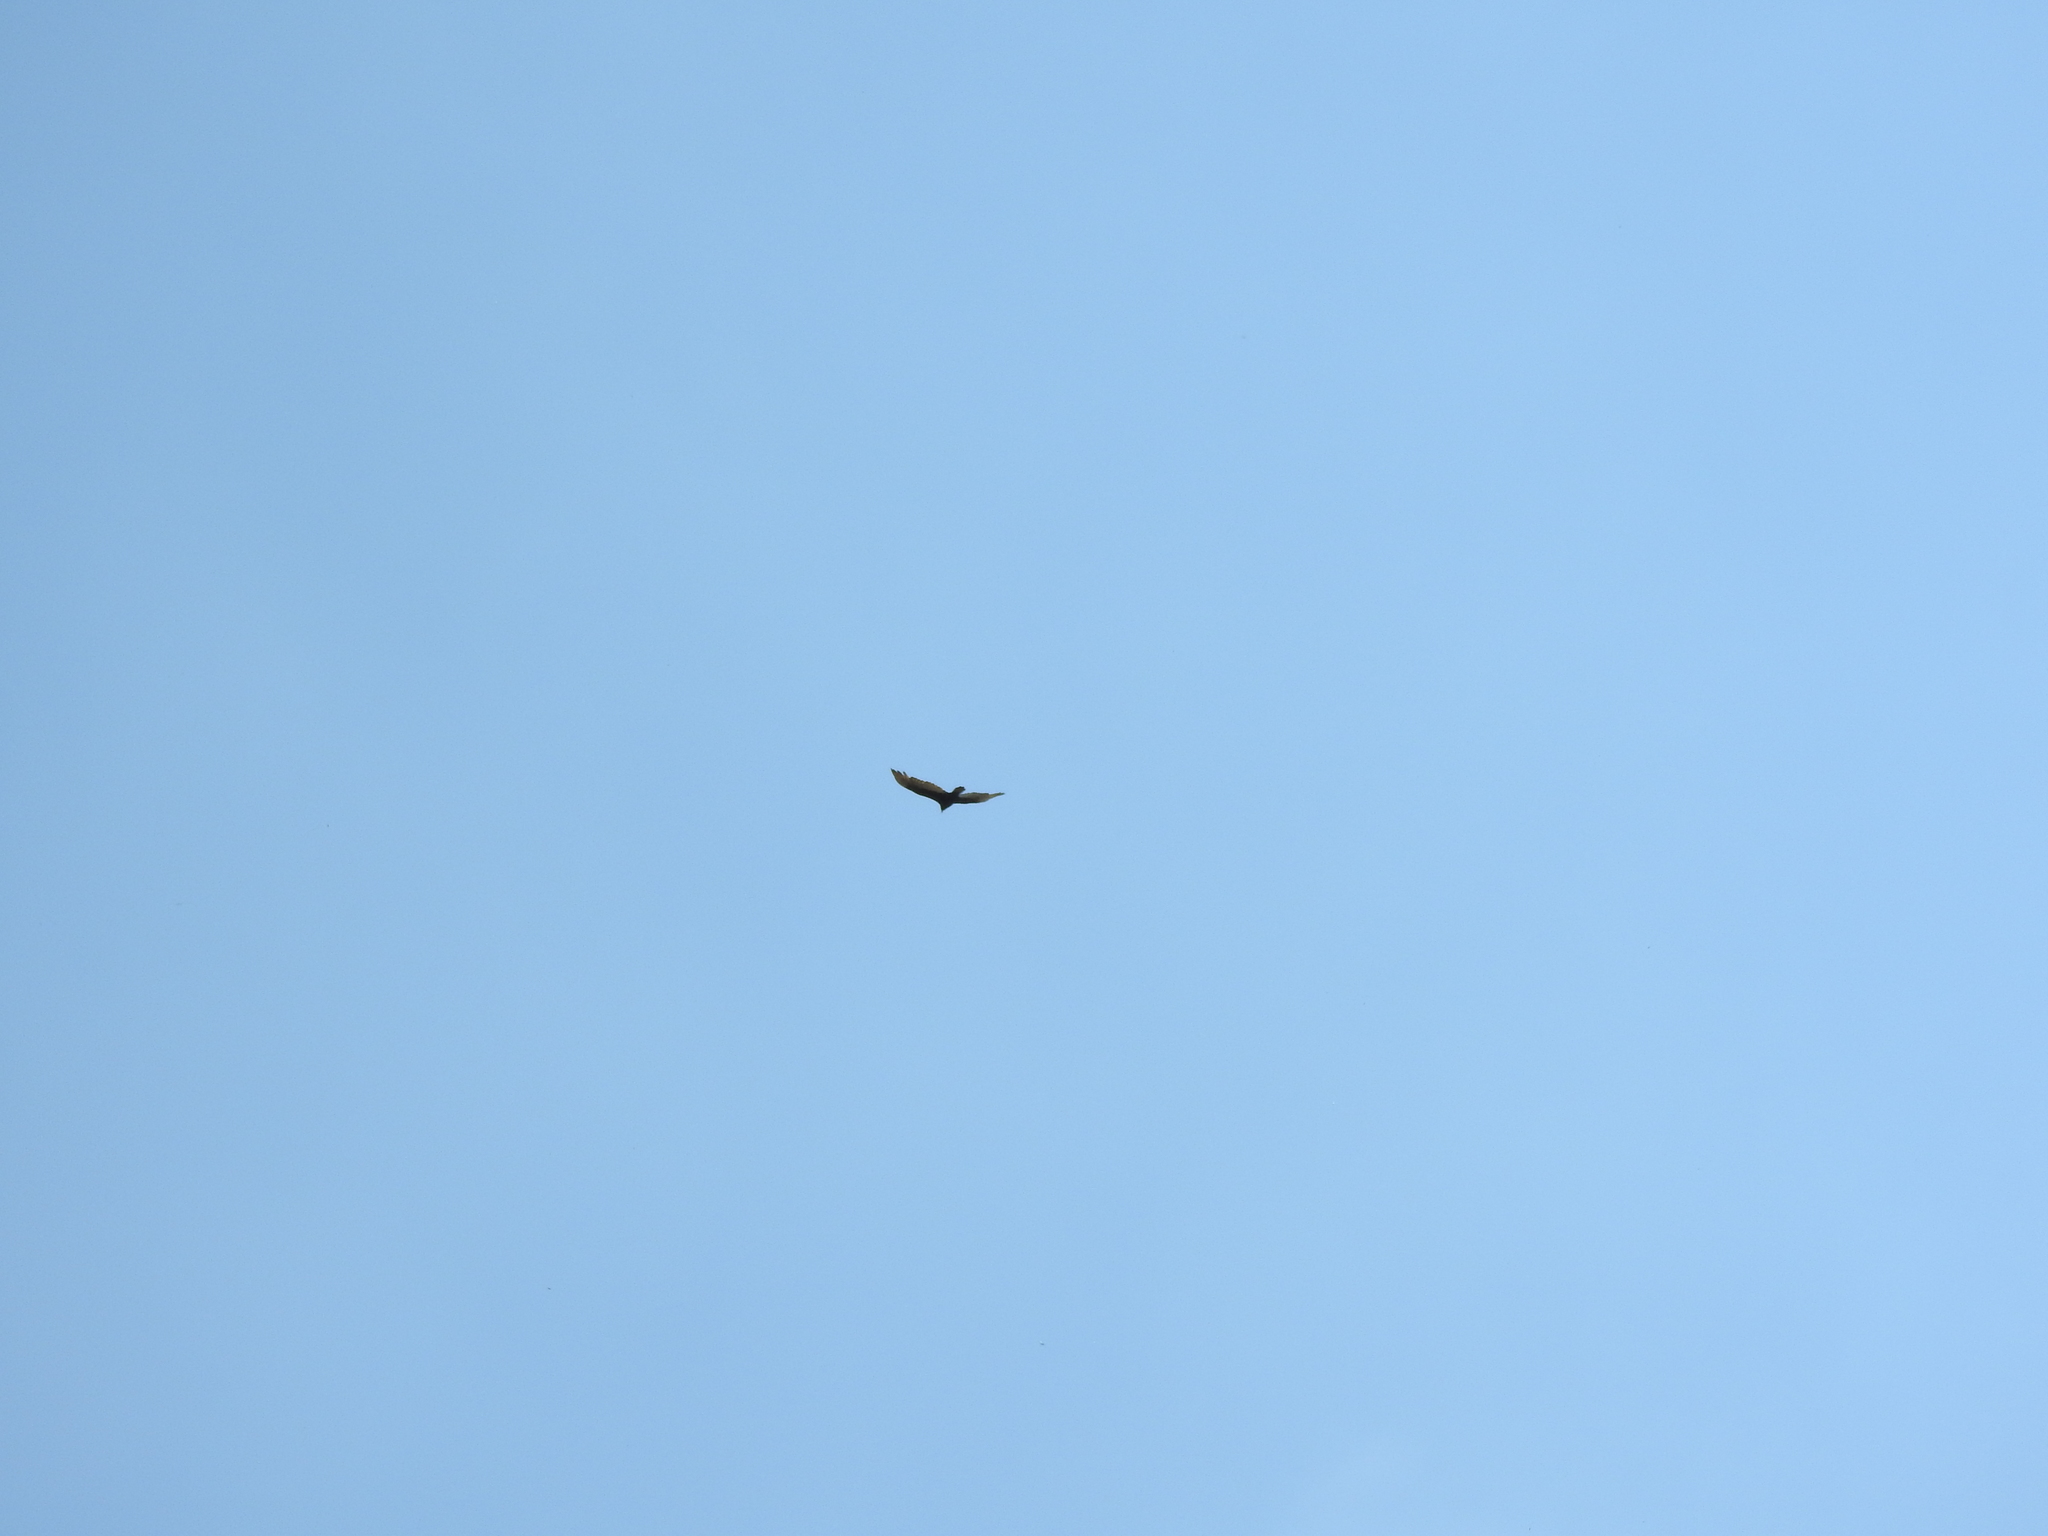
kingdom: Animalia
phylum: Chordata
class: Aves
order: Accipitriformes
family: Cathartidae
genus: Cathartes
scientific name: Cathartes aura
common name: Turkey vulture
